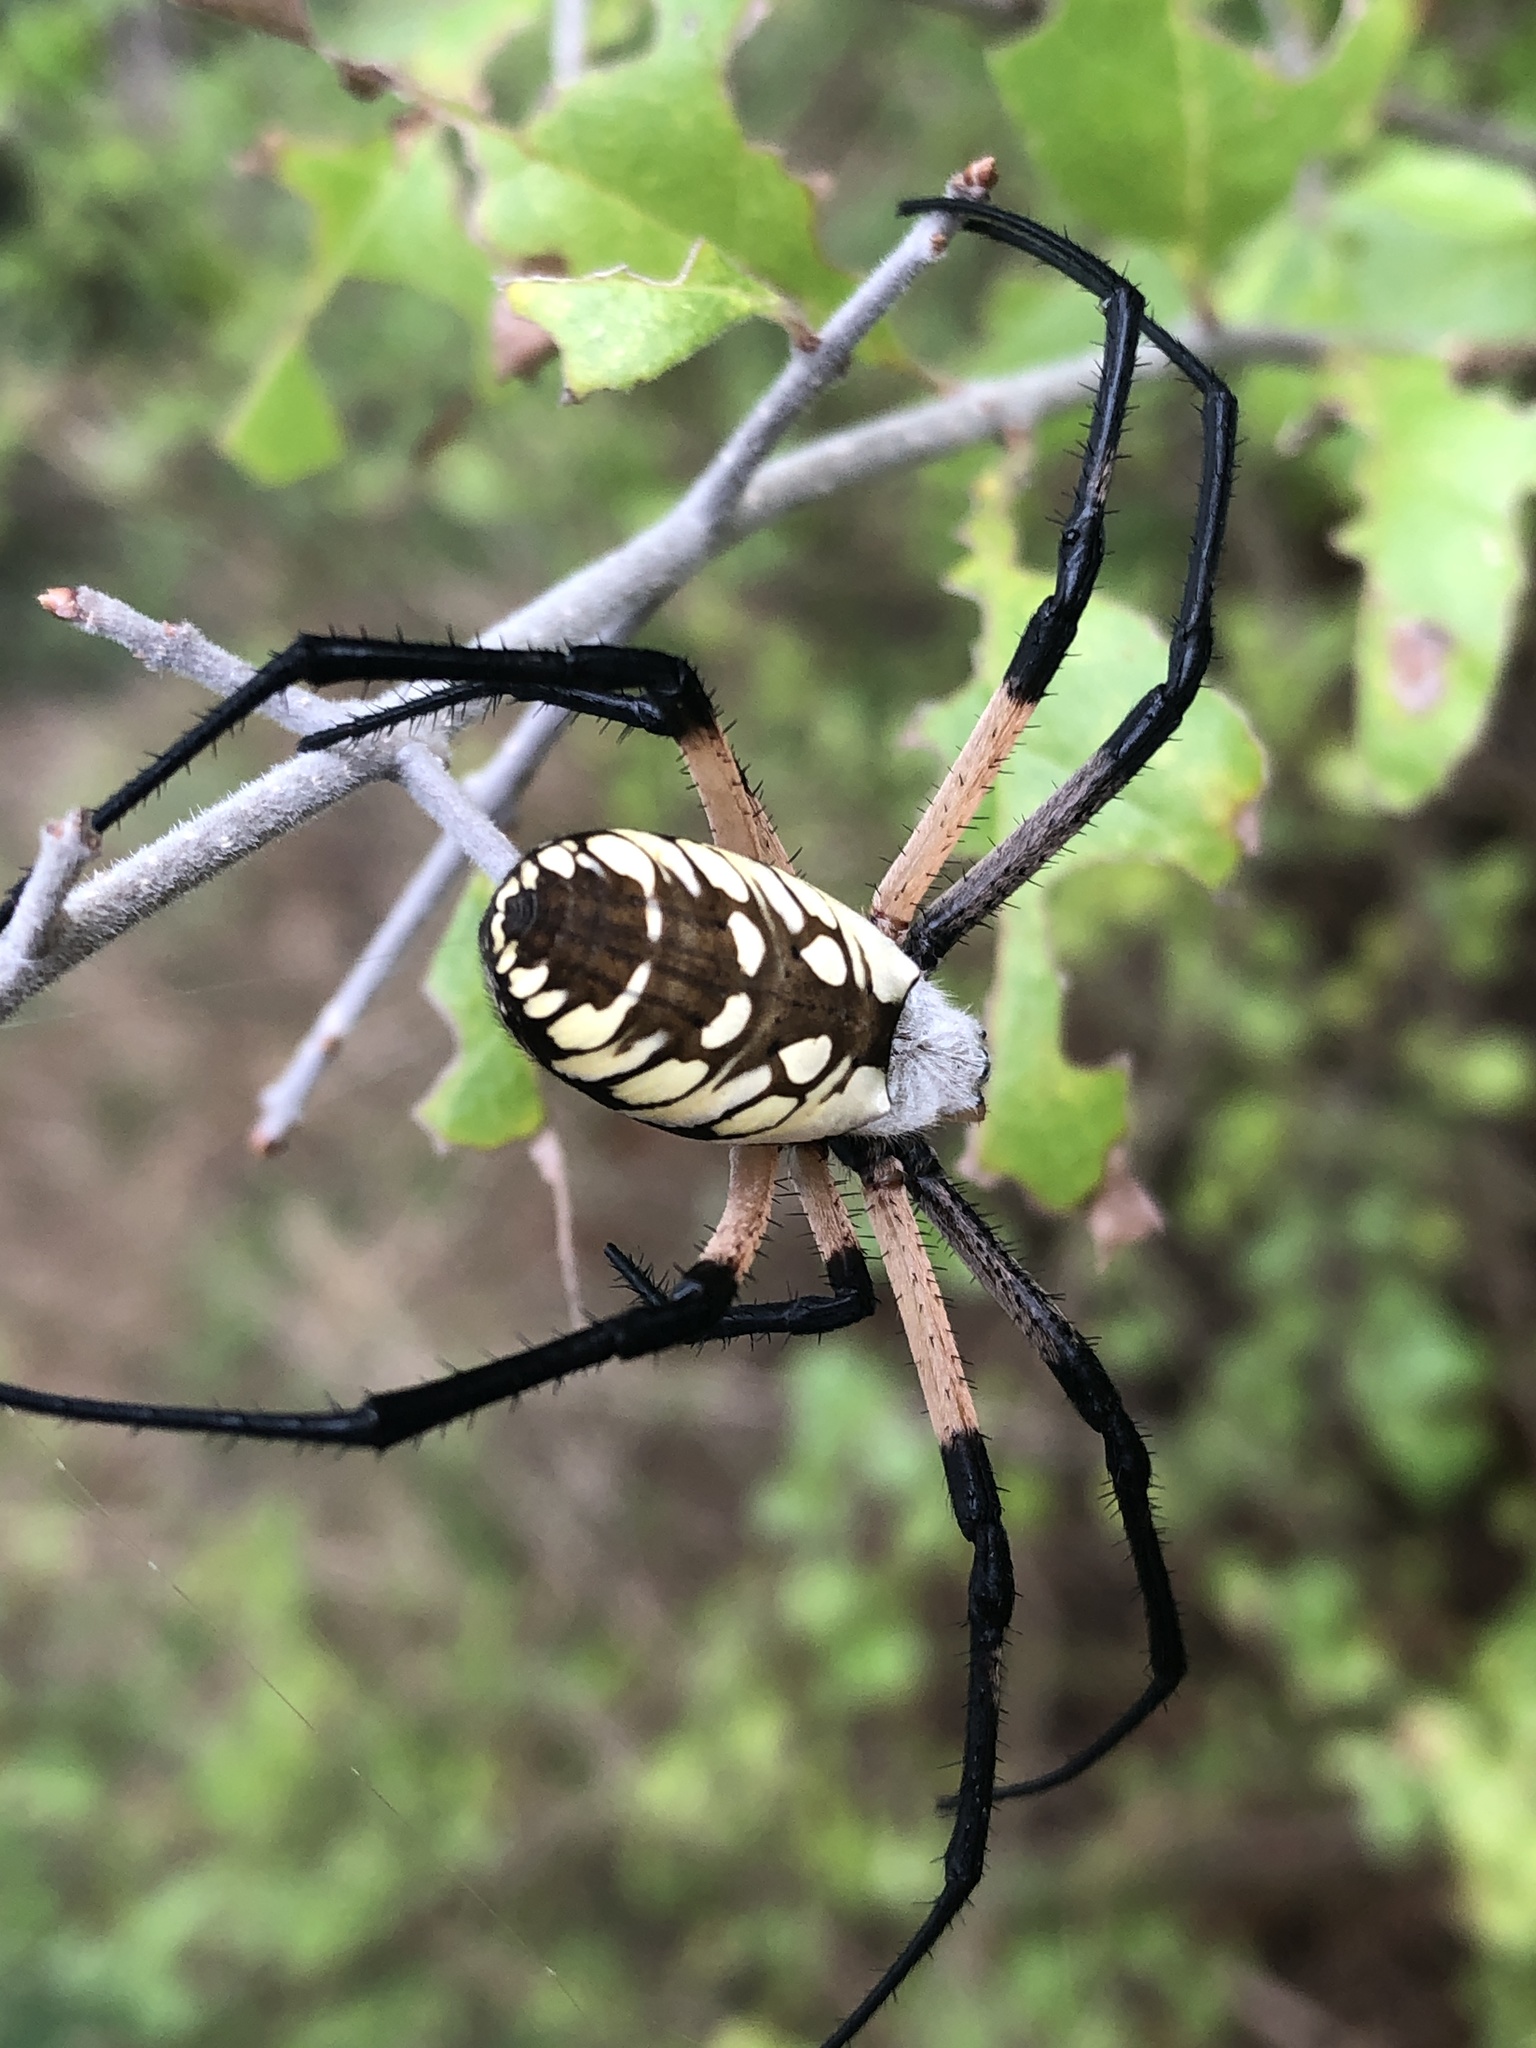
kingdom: Animalia
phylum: Arthropoda
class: Arachnida
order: Araneae
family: Araneidae
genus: Argiope
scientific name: Argiope aurantia
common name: Orb weavers
